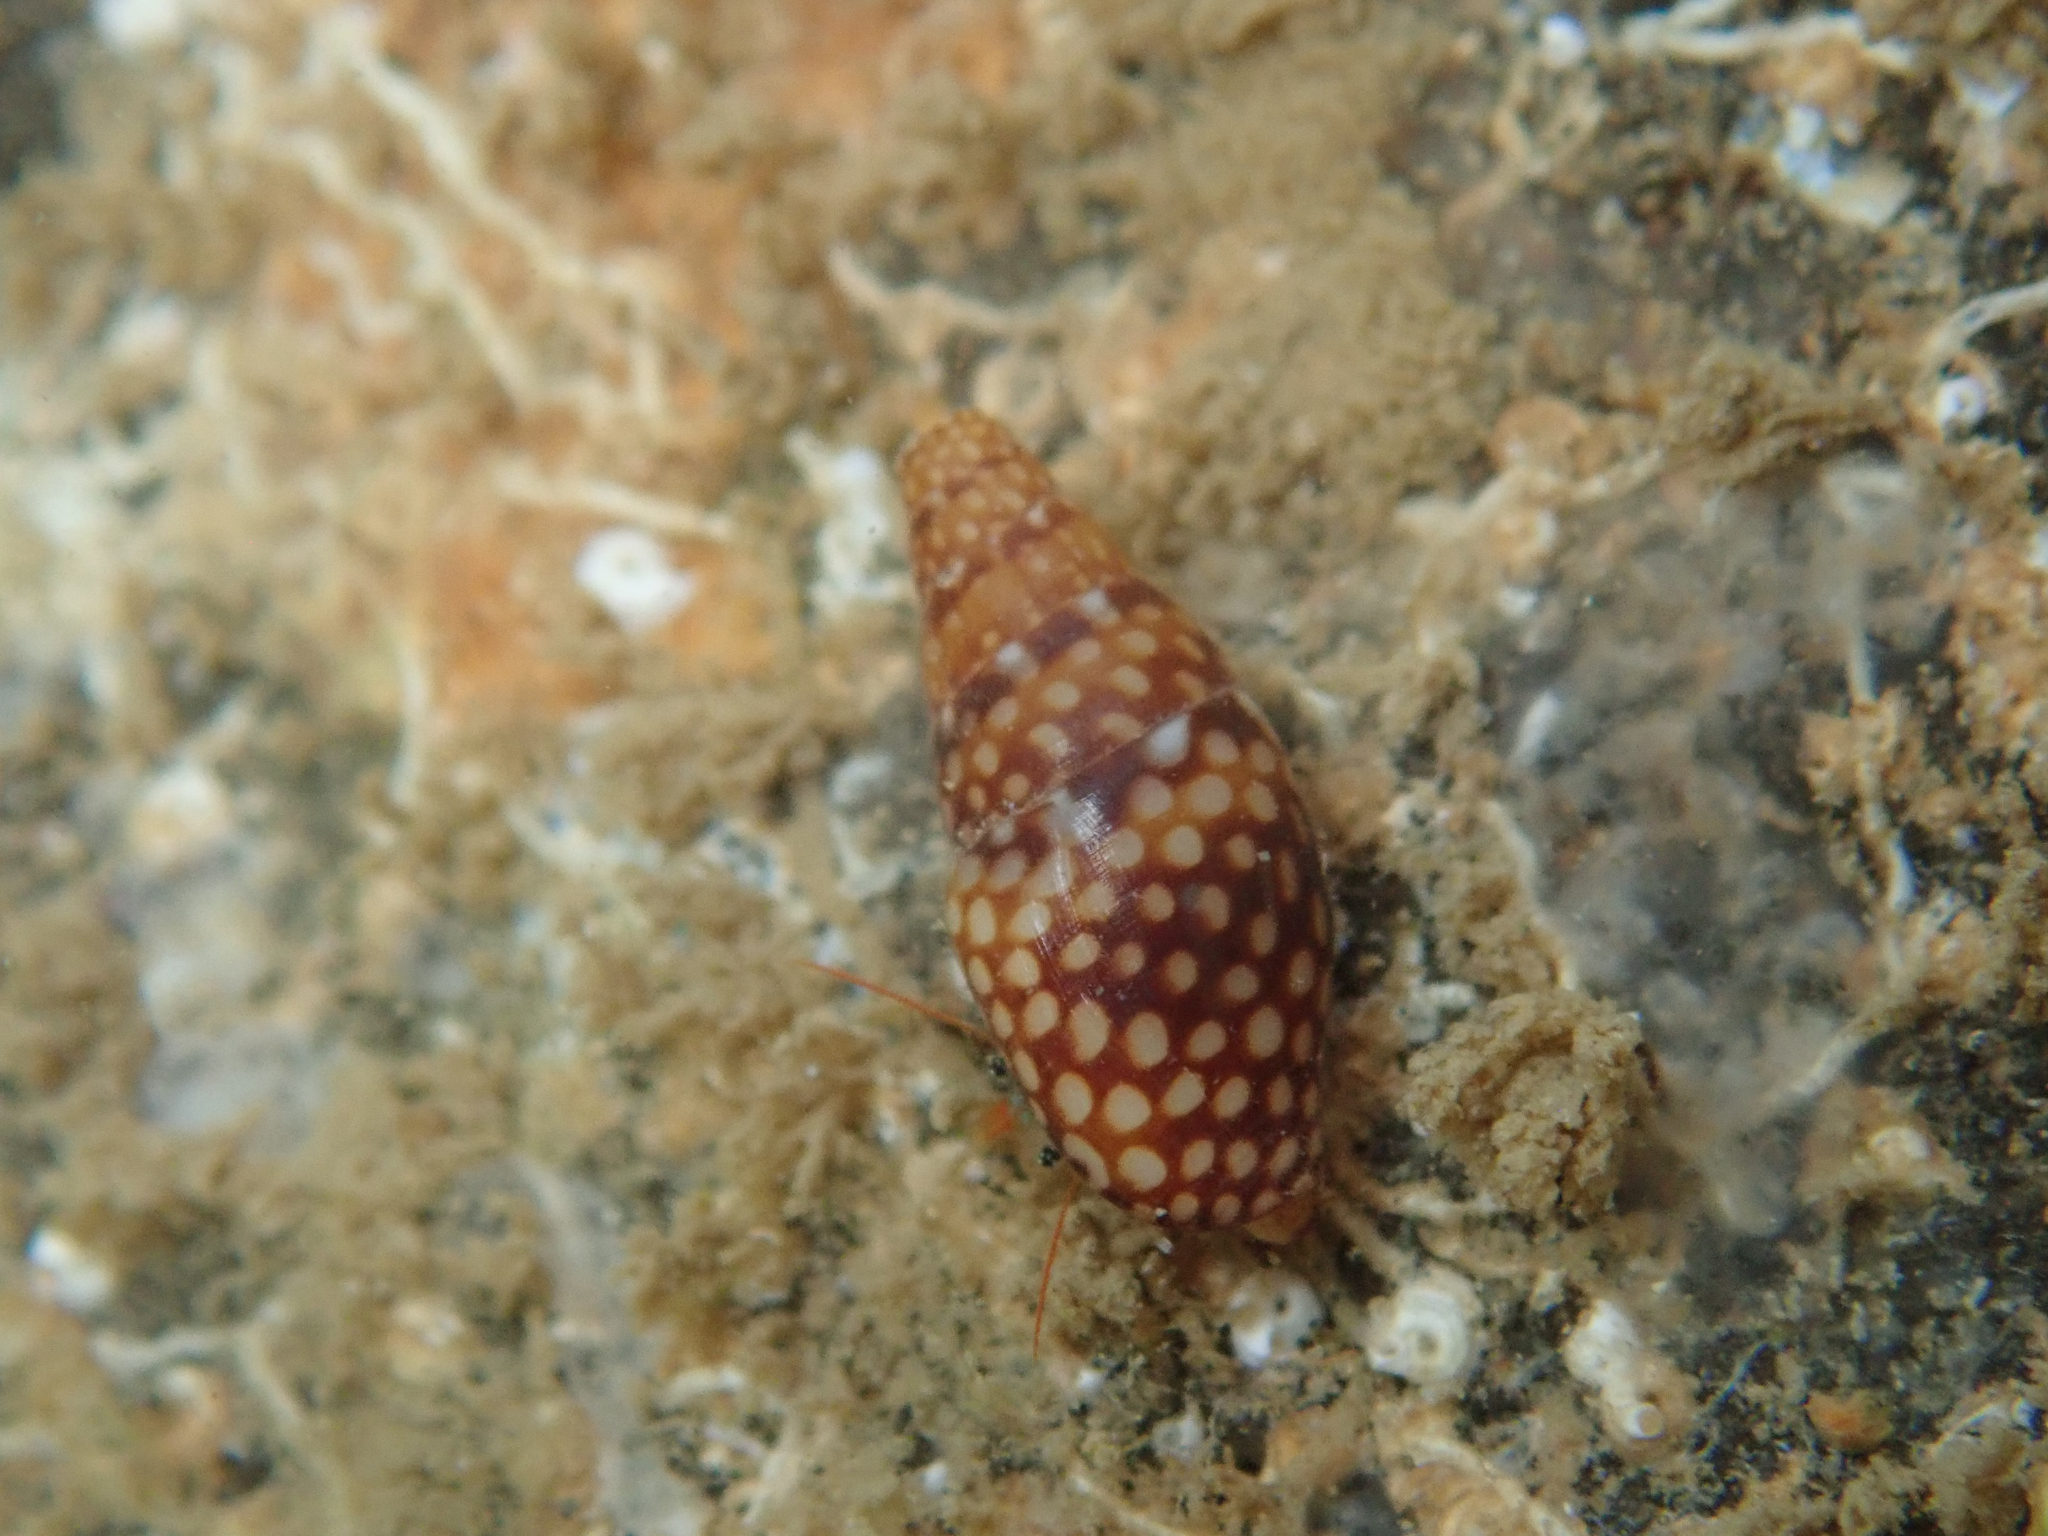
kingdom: Animalia
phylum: Mollusca
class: Gastropoda
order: Neogastropoda
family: Columbellidae
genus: Mitrella
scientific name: Mitrella ocellata
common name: White-spot dovesnail
